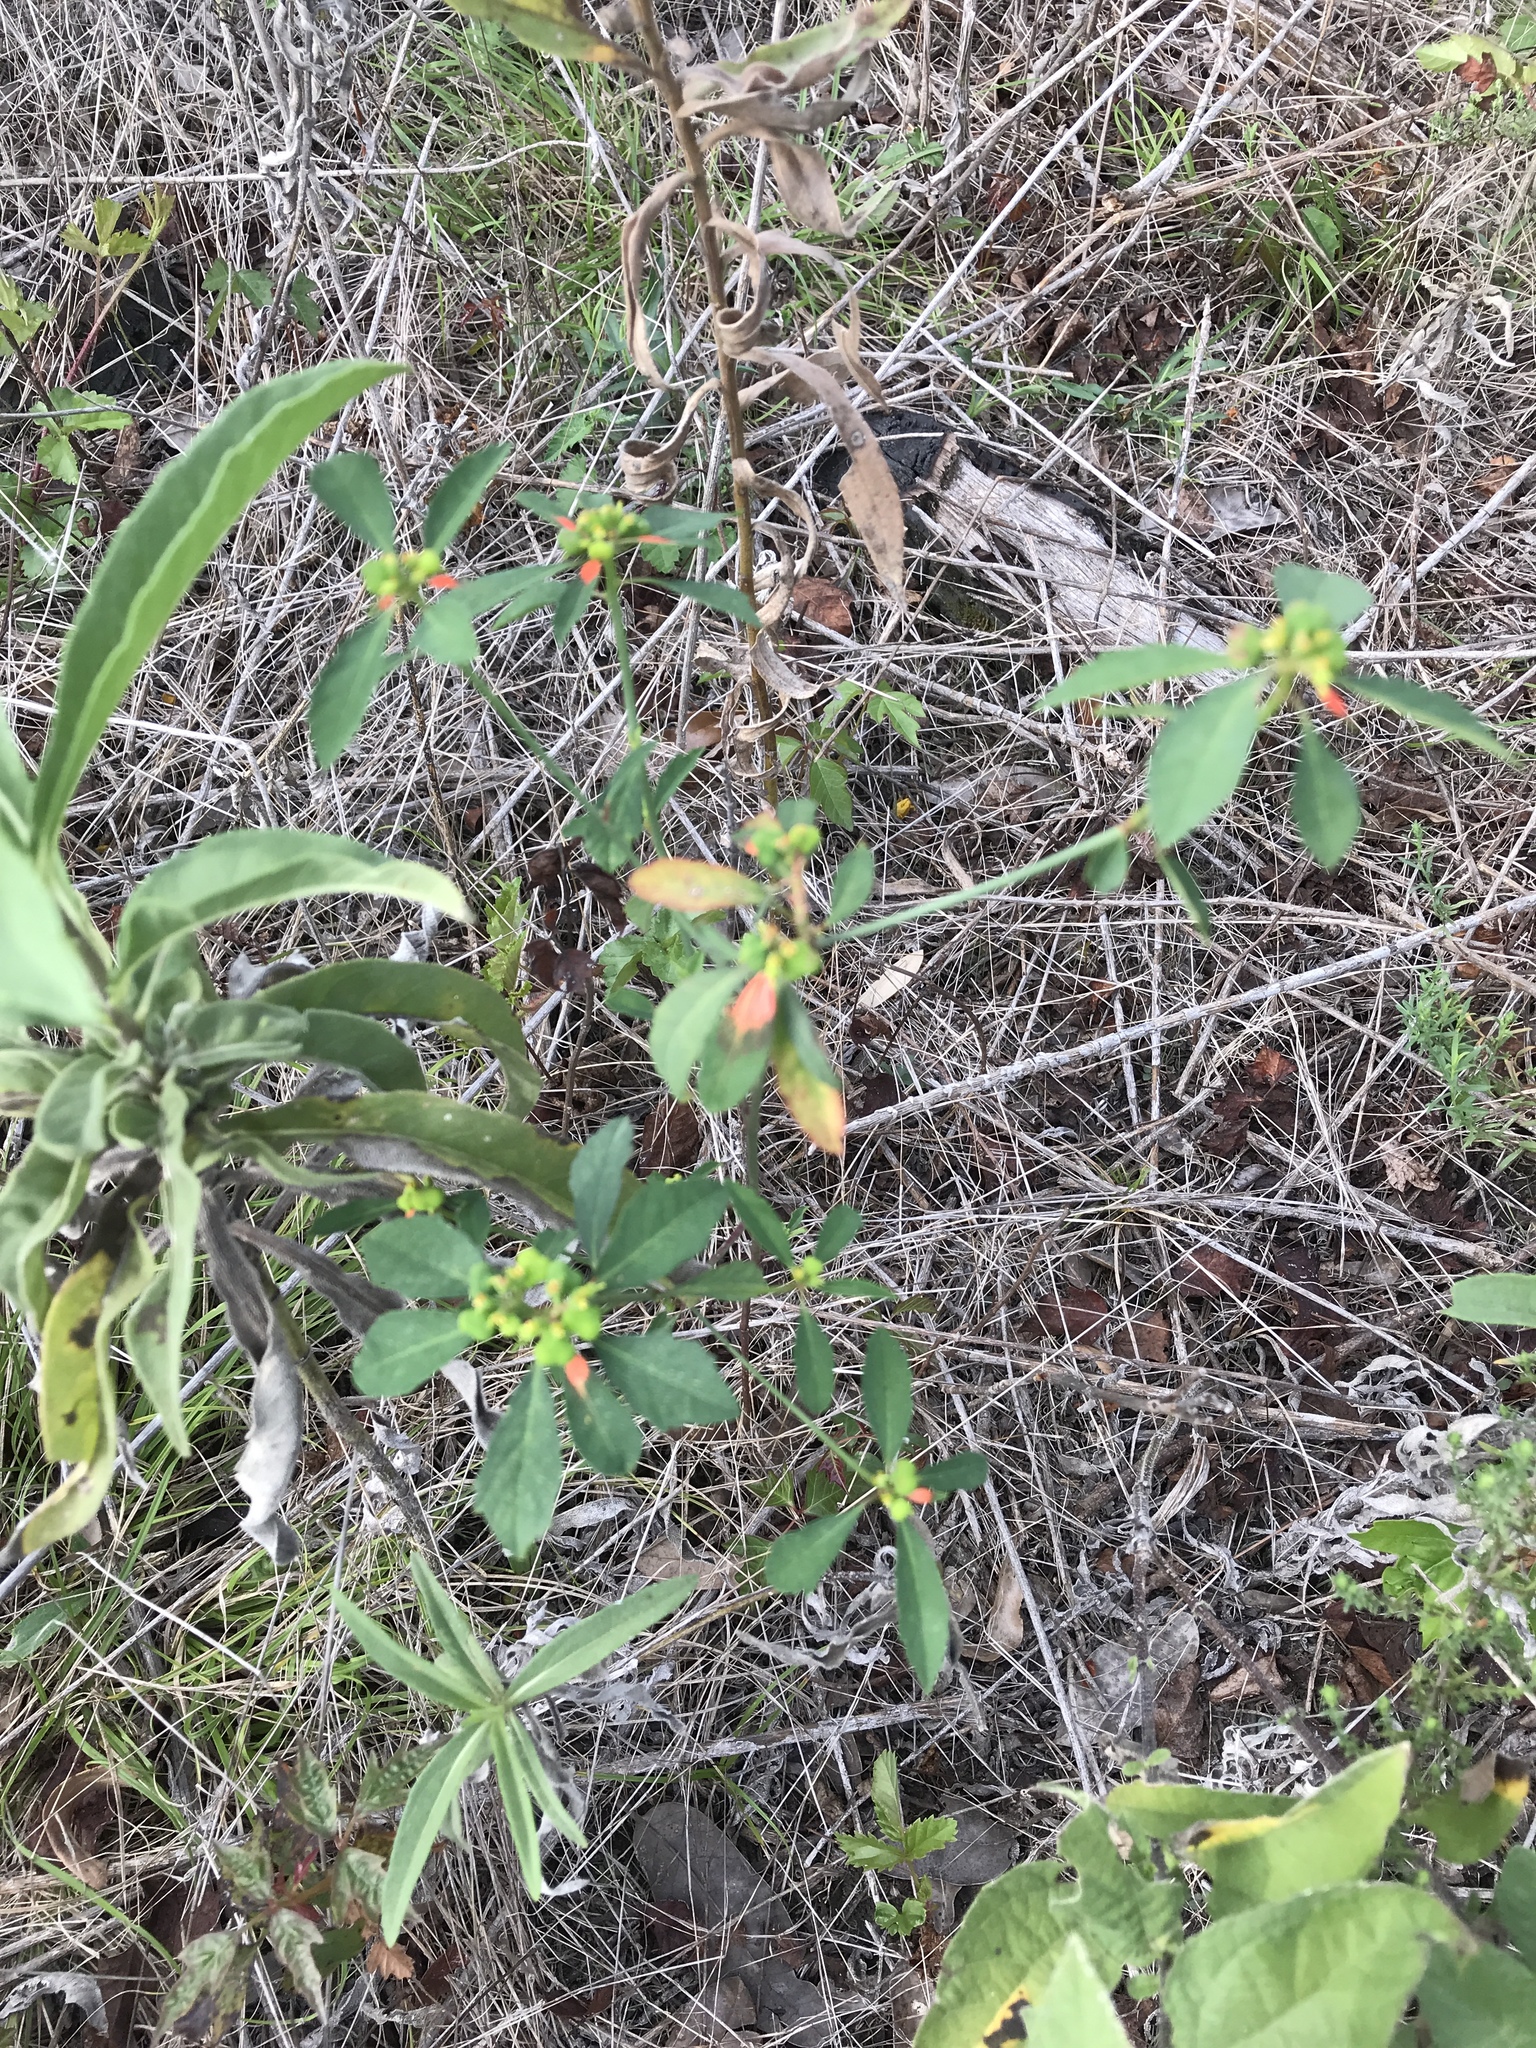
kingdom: Plantae
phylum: Tracheophyta
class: Magnoliopsida
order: Malpighiales
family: Euphorbiaceae
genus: Euphorbia
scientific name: Euphorbia heterophylla
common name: Mexican fireplant
